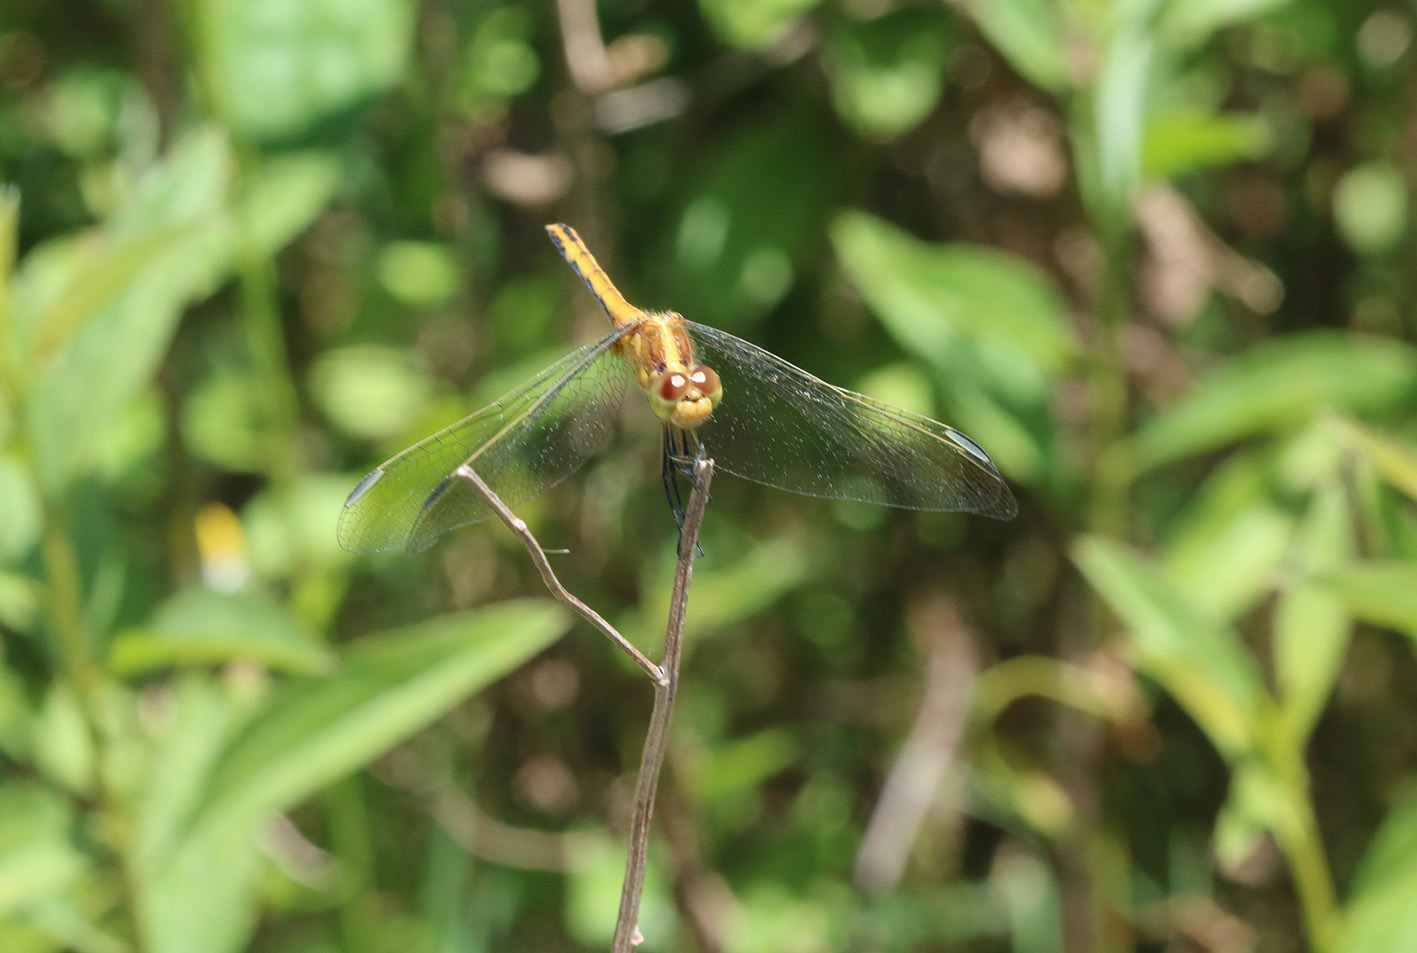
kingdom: Animalia
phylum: Arthropoda
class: Insecta
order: Odonata
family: Libellulidae
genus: Erythrodiplax
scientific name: Erythrodiplax nigricans
